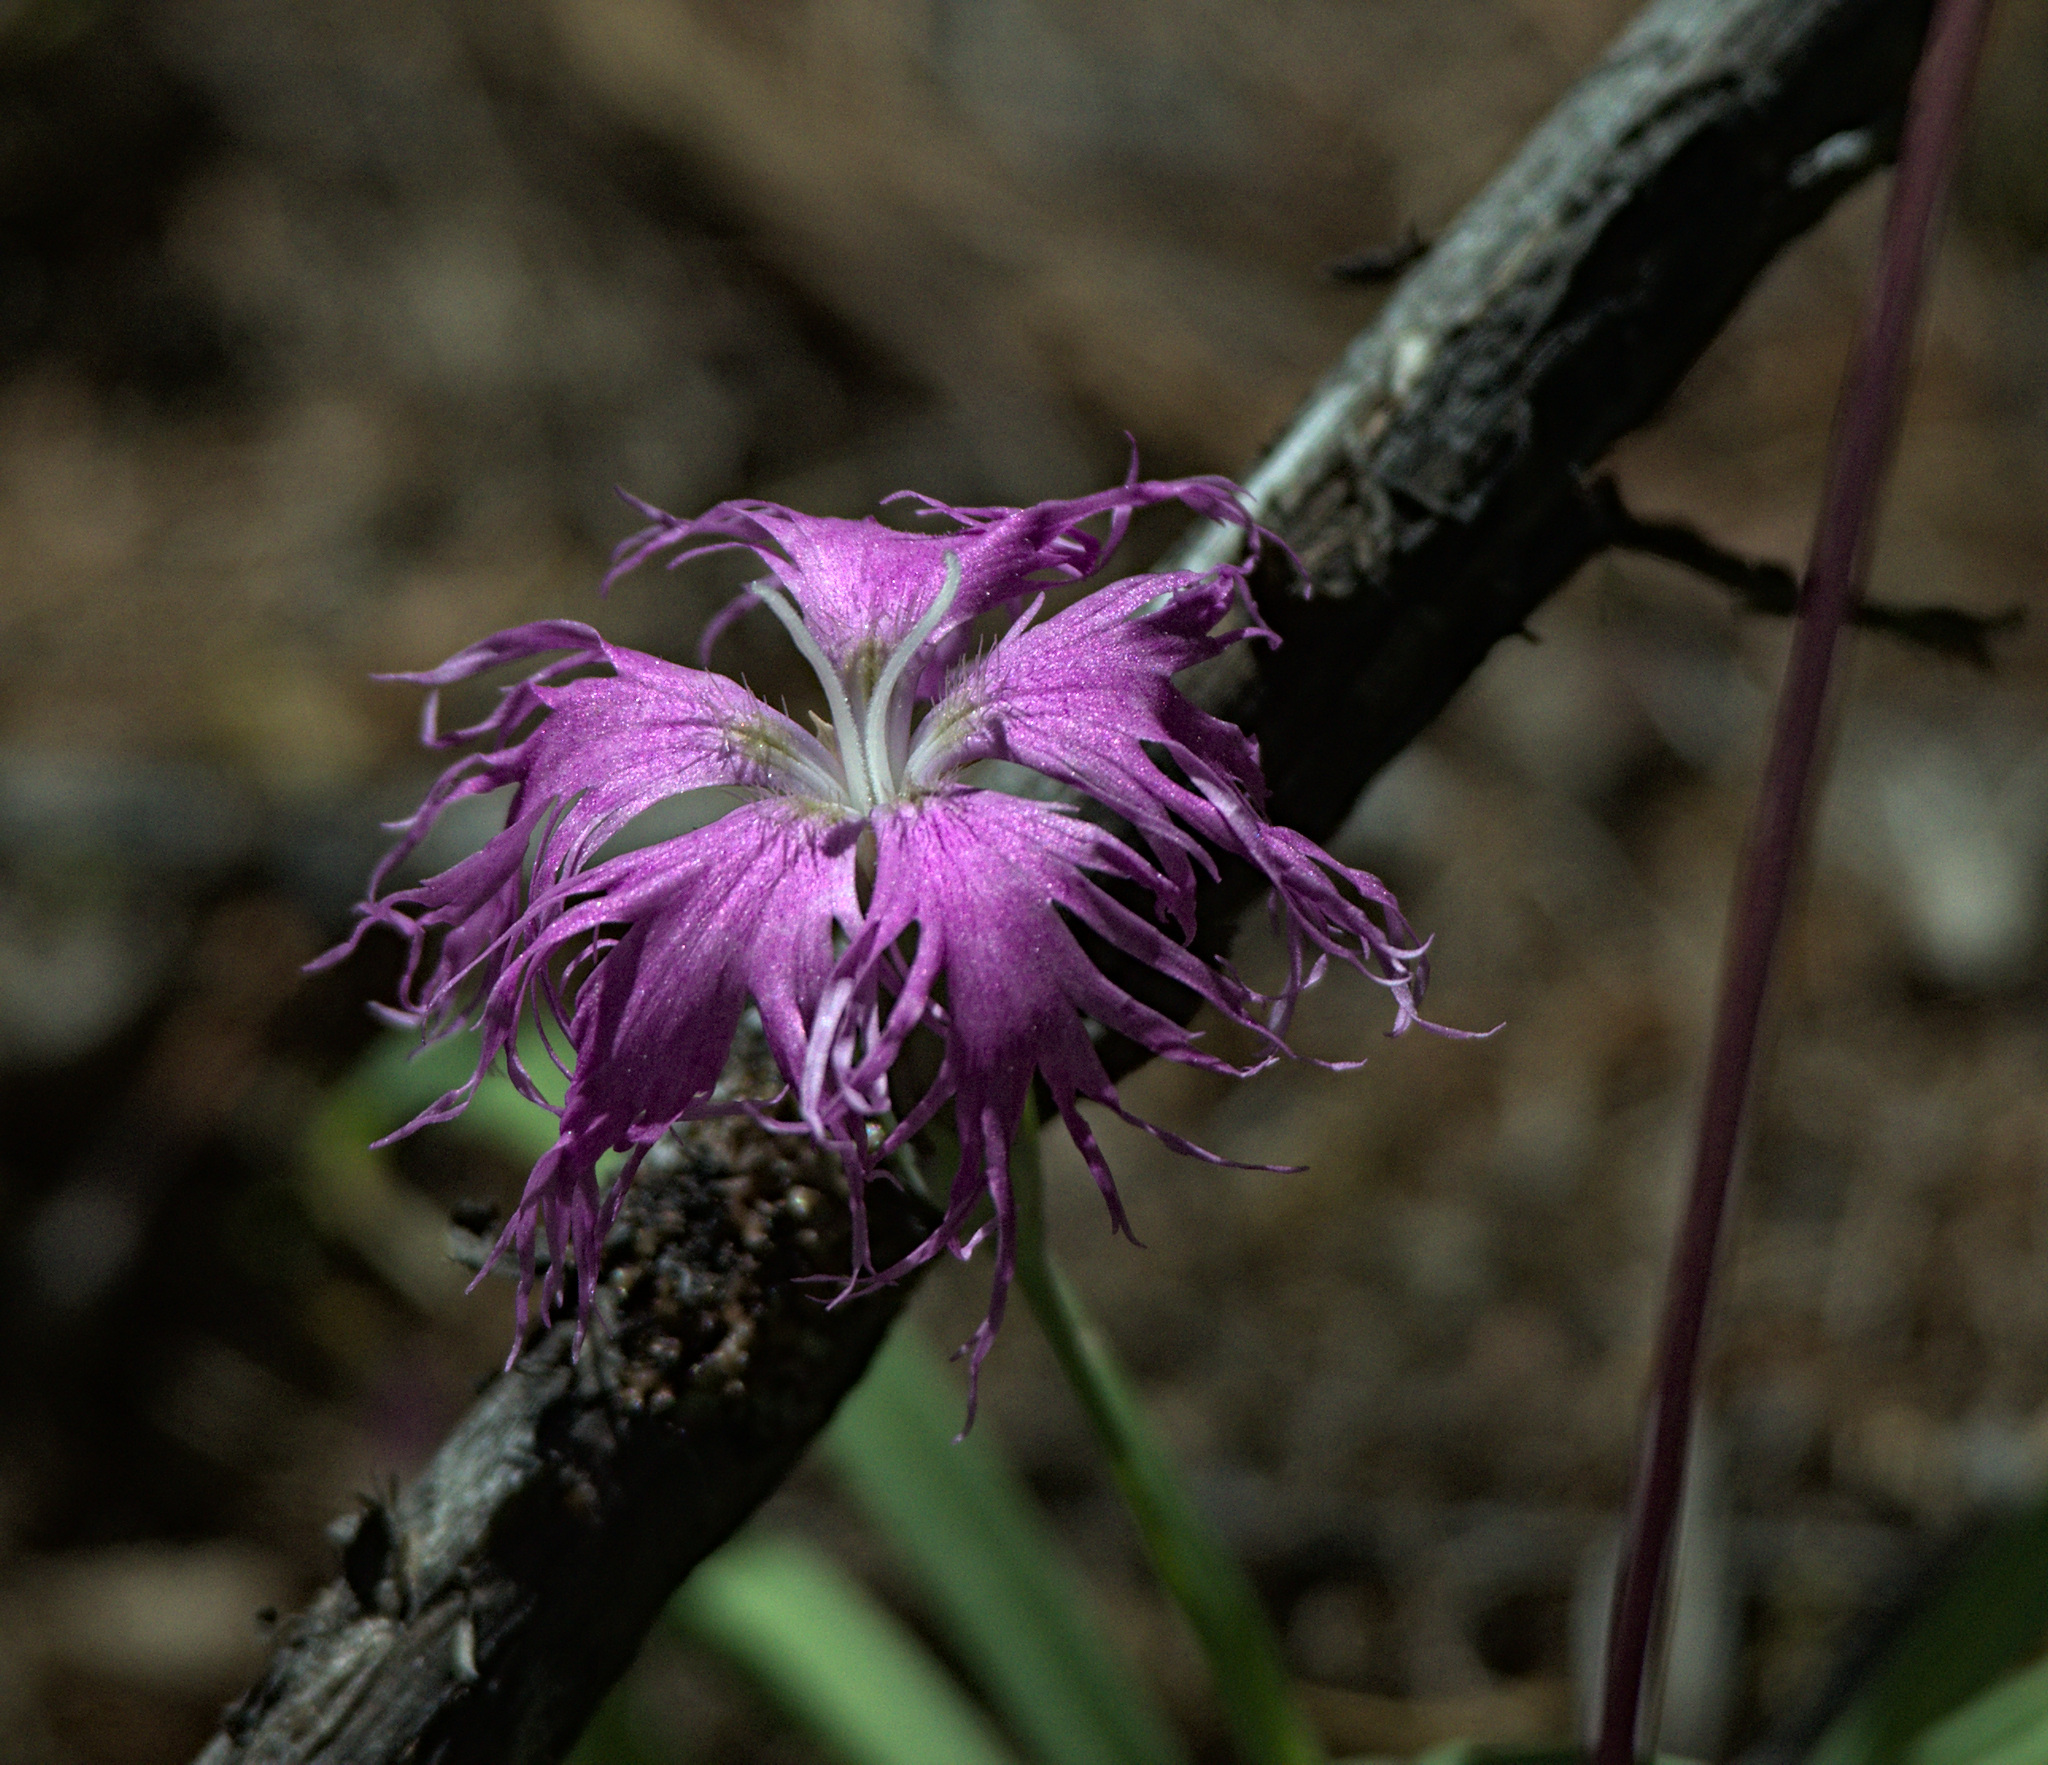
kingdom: Plantae
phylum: Tracheophyta
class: Magnoliopsida
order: Caryophyllales
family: Caryophyllaceae
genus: Dianthus
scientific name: Dianthus superbus
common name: Fringed pink
